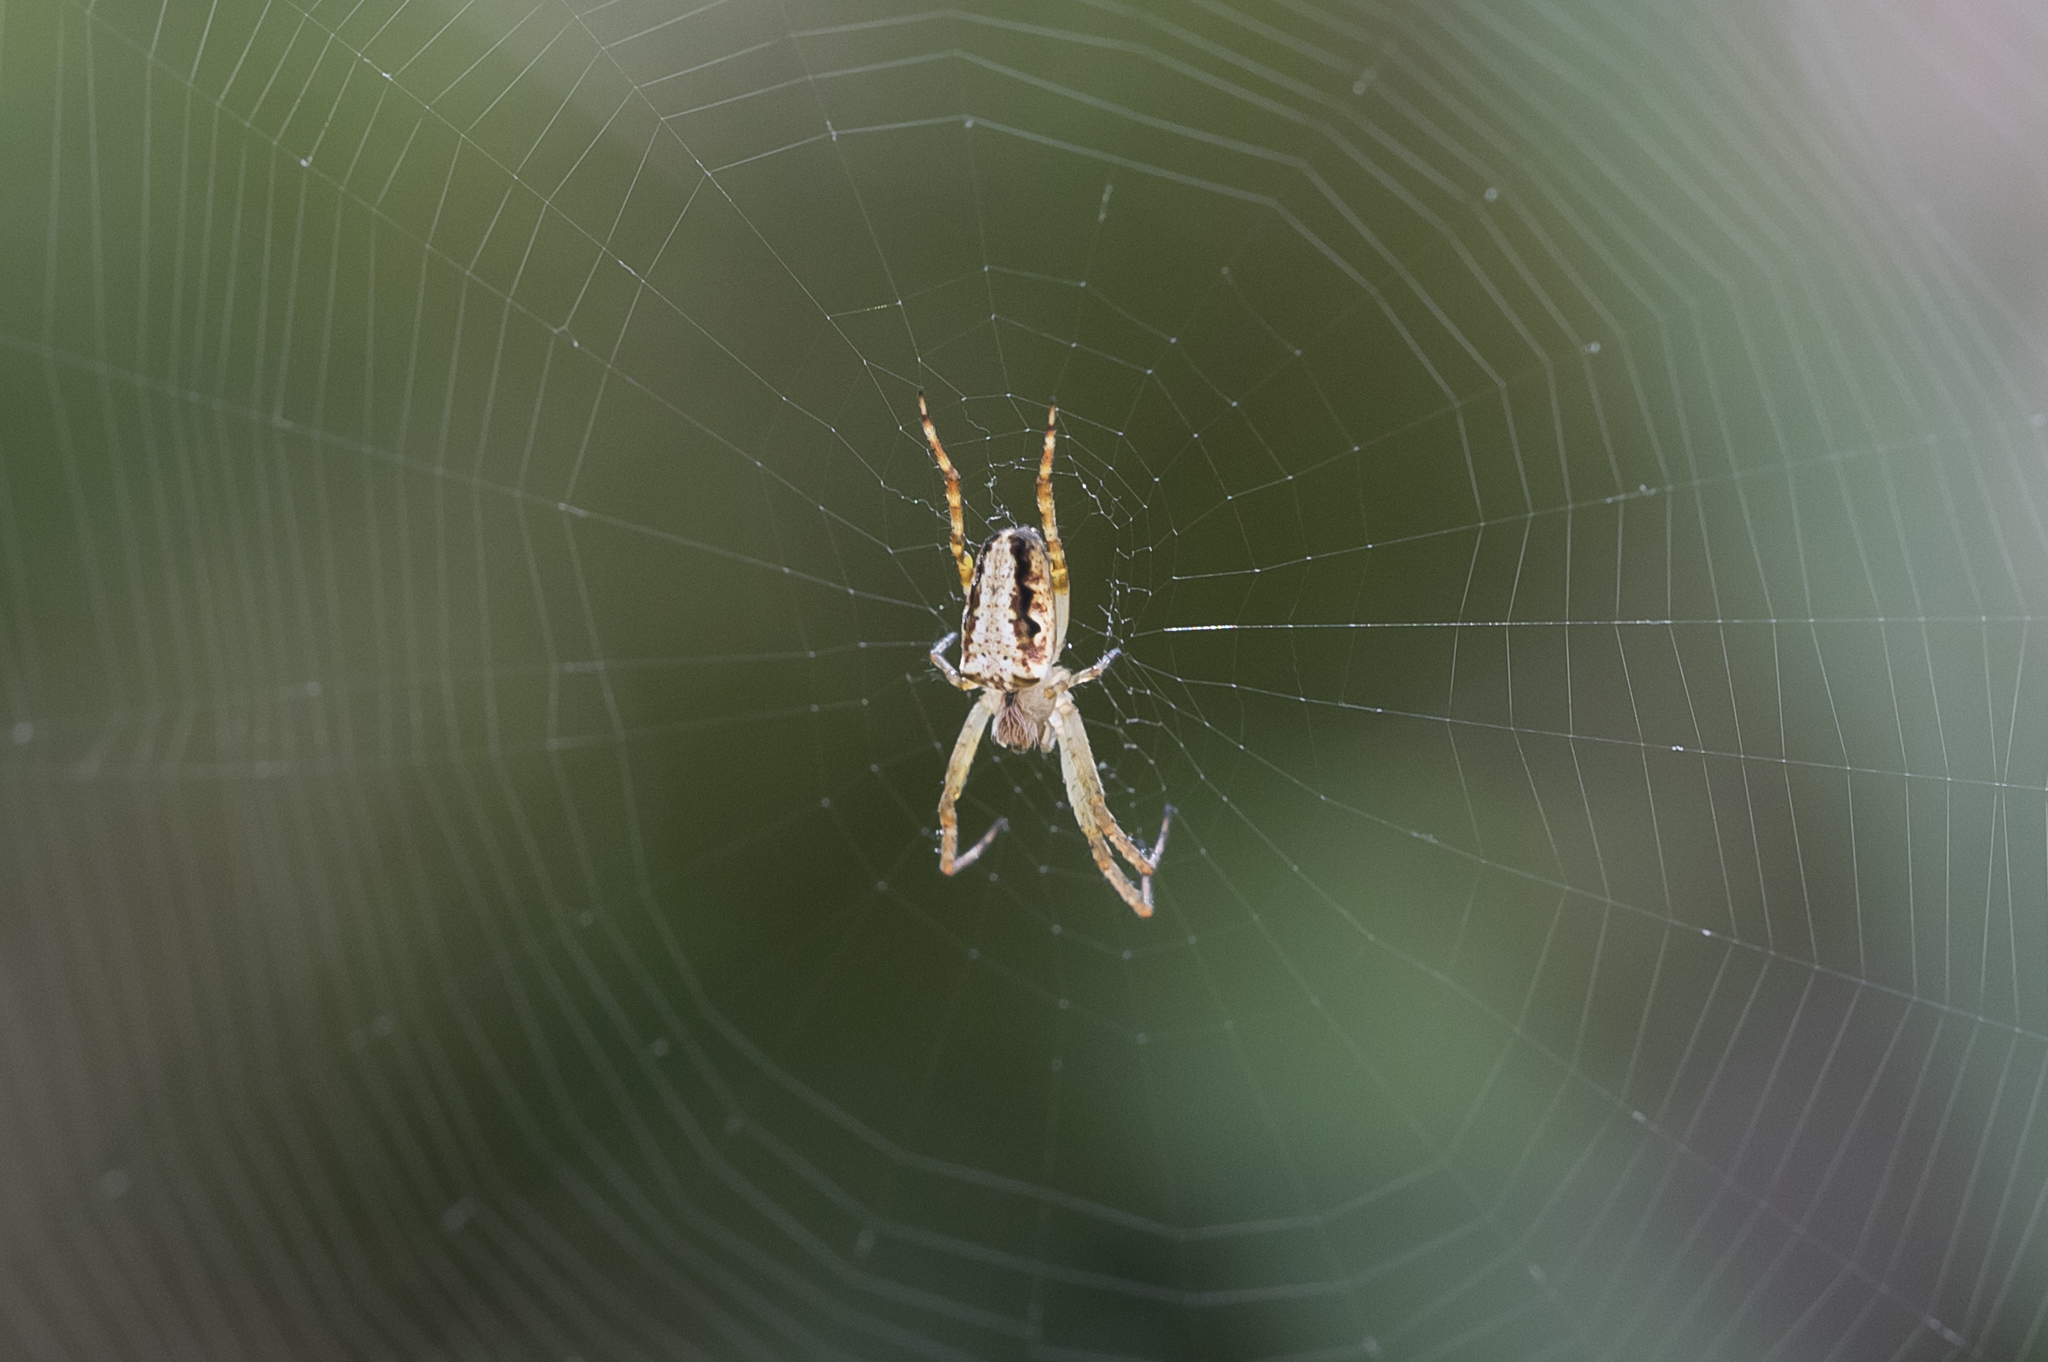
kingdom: Animalia
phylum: Arthropoda
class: Arachnida
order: Araneae
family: Araneidae
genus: Plebs
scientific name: Plebs eburnus
